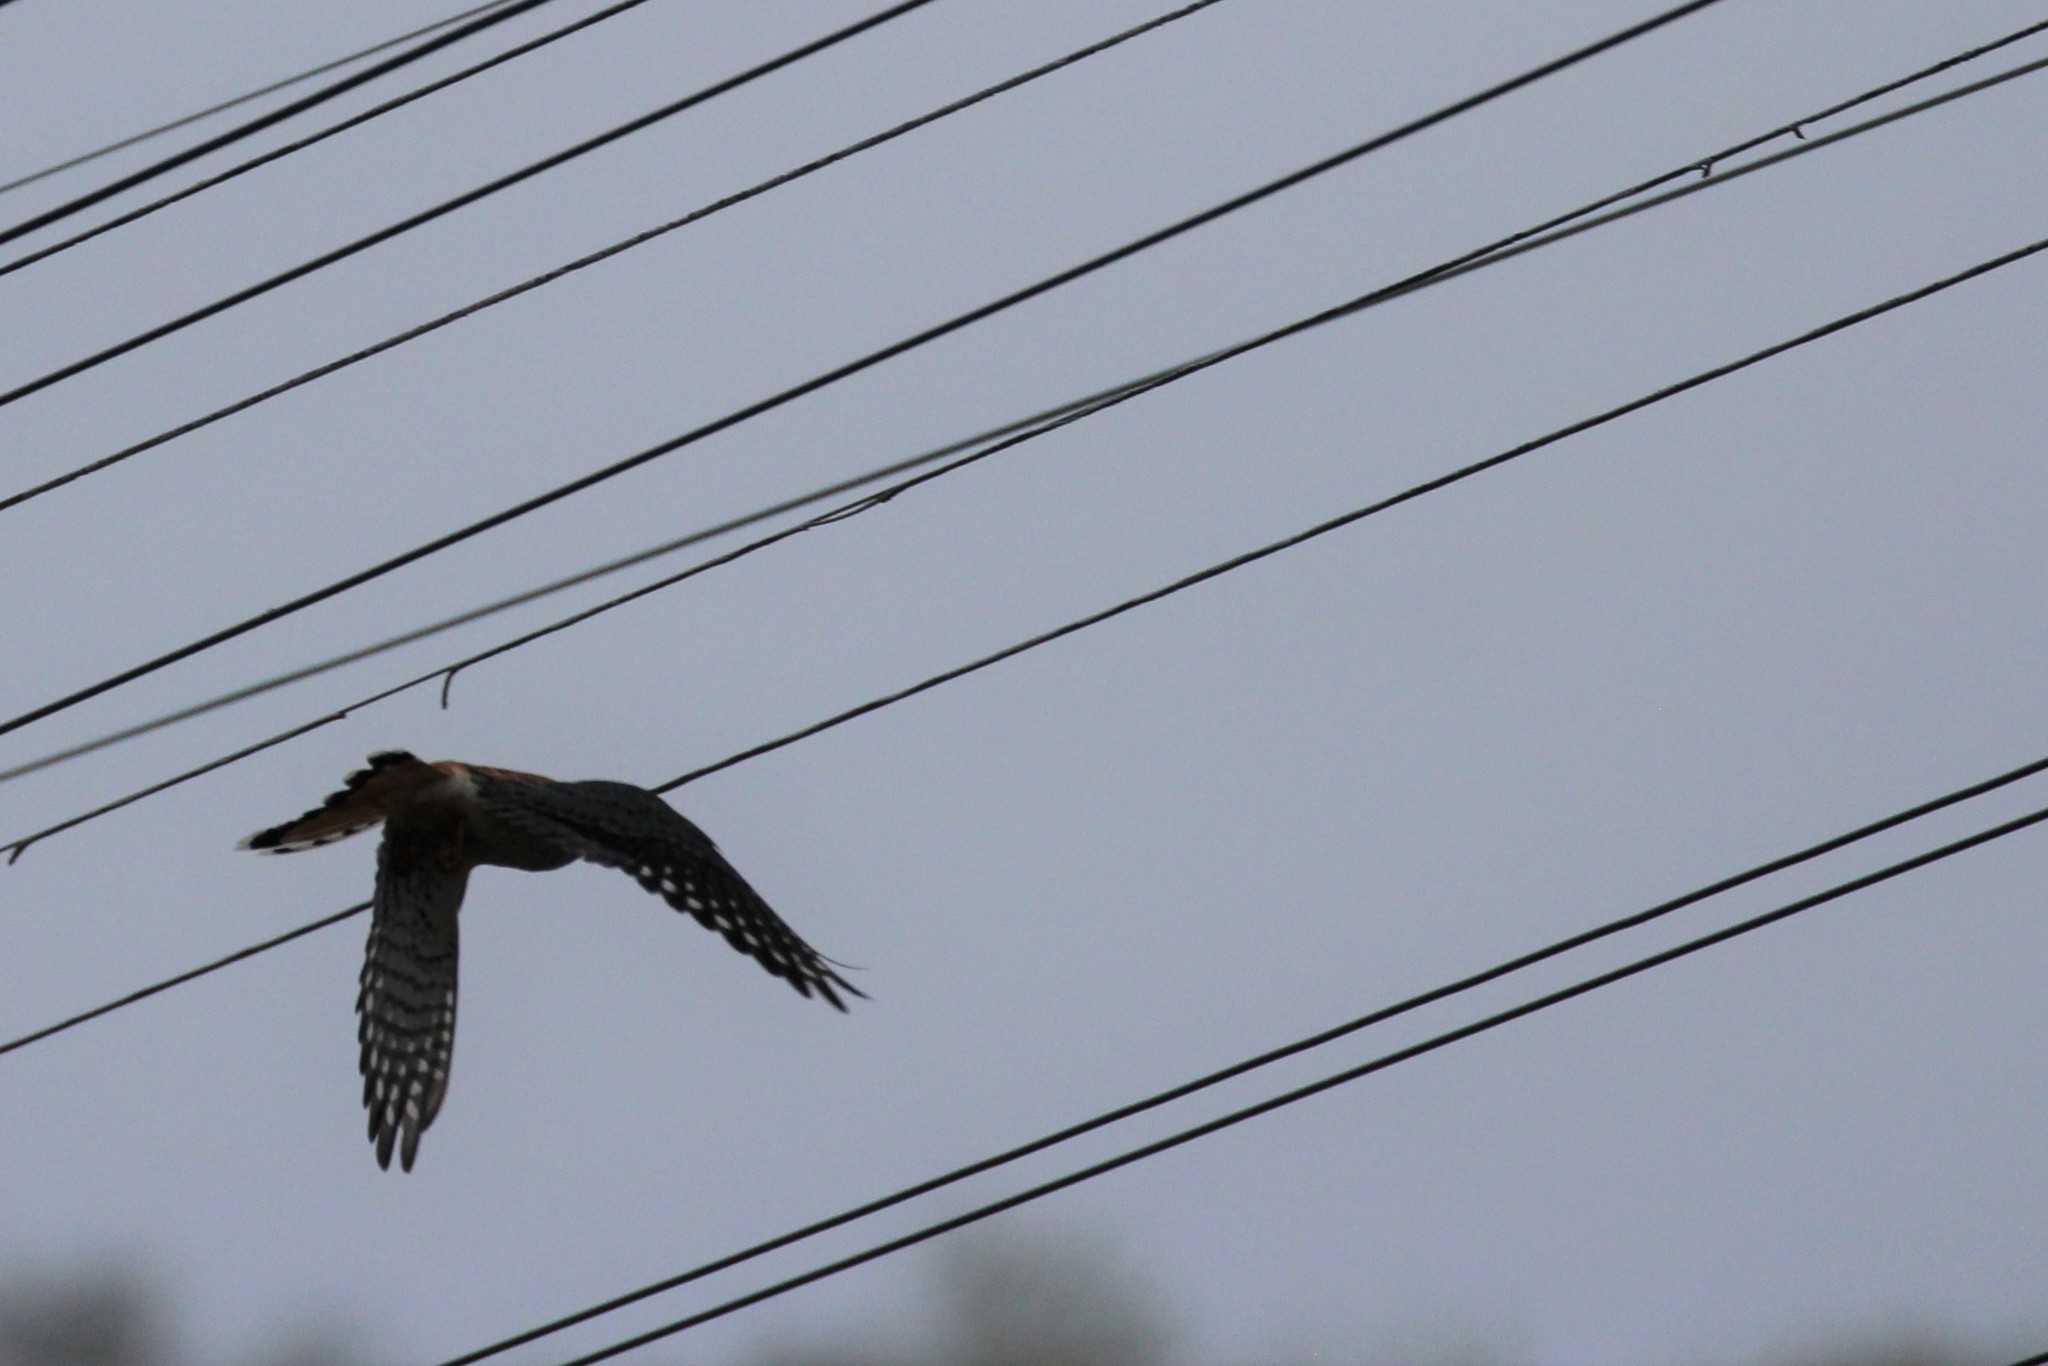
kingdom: Animalia
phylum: Chordata
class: Aves
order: Falconiformes
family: Falconidae
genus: Falco
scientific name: Falco sparverius
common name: American kestrel
